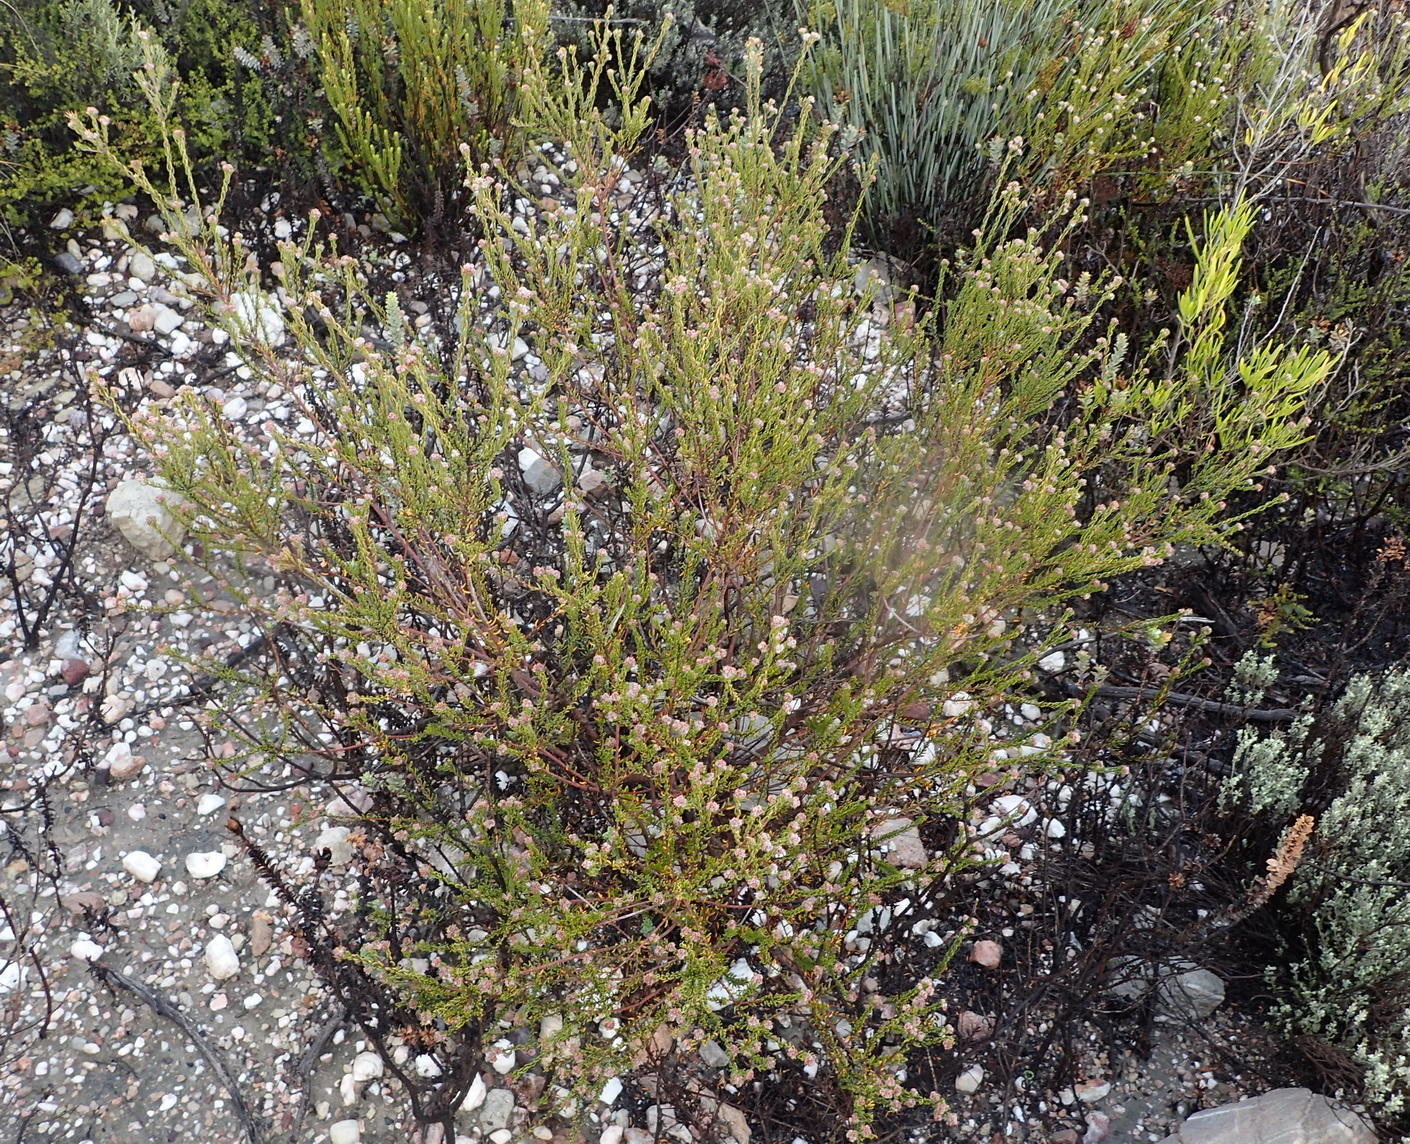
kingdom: Plantae
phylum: Tracheophyta
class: Magnoliopsida
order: Rosales
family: Rhamnaceae
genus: Phylica
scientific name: Phylica lanata
